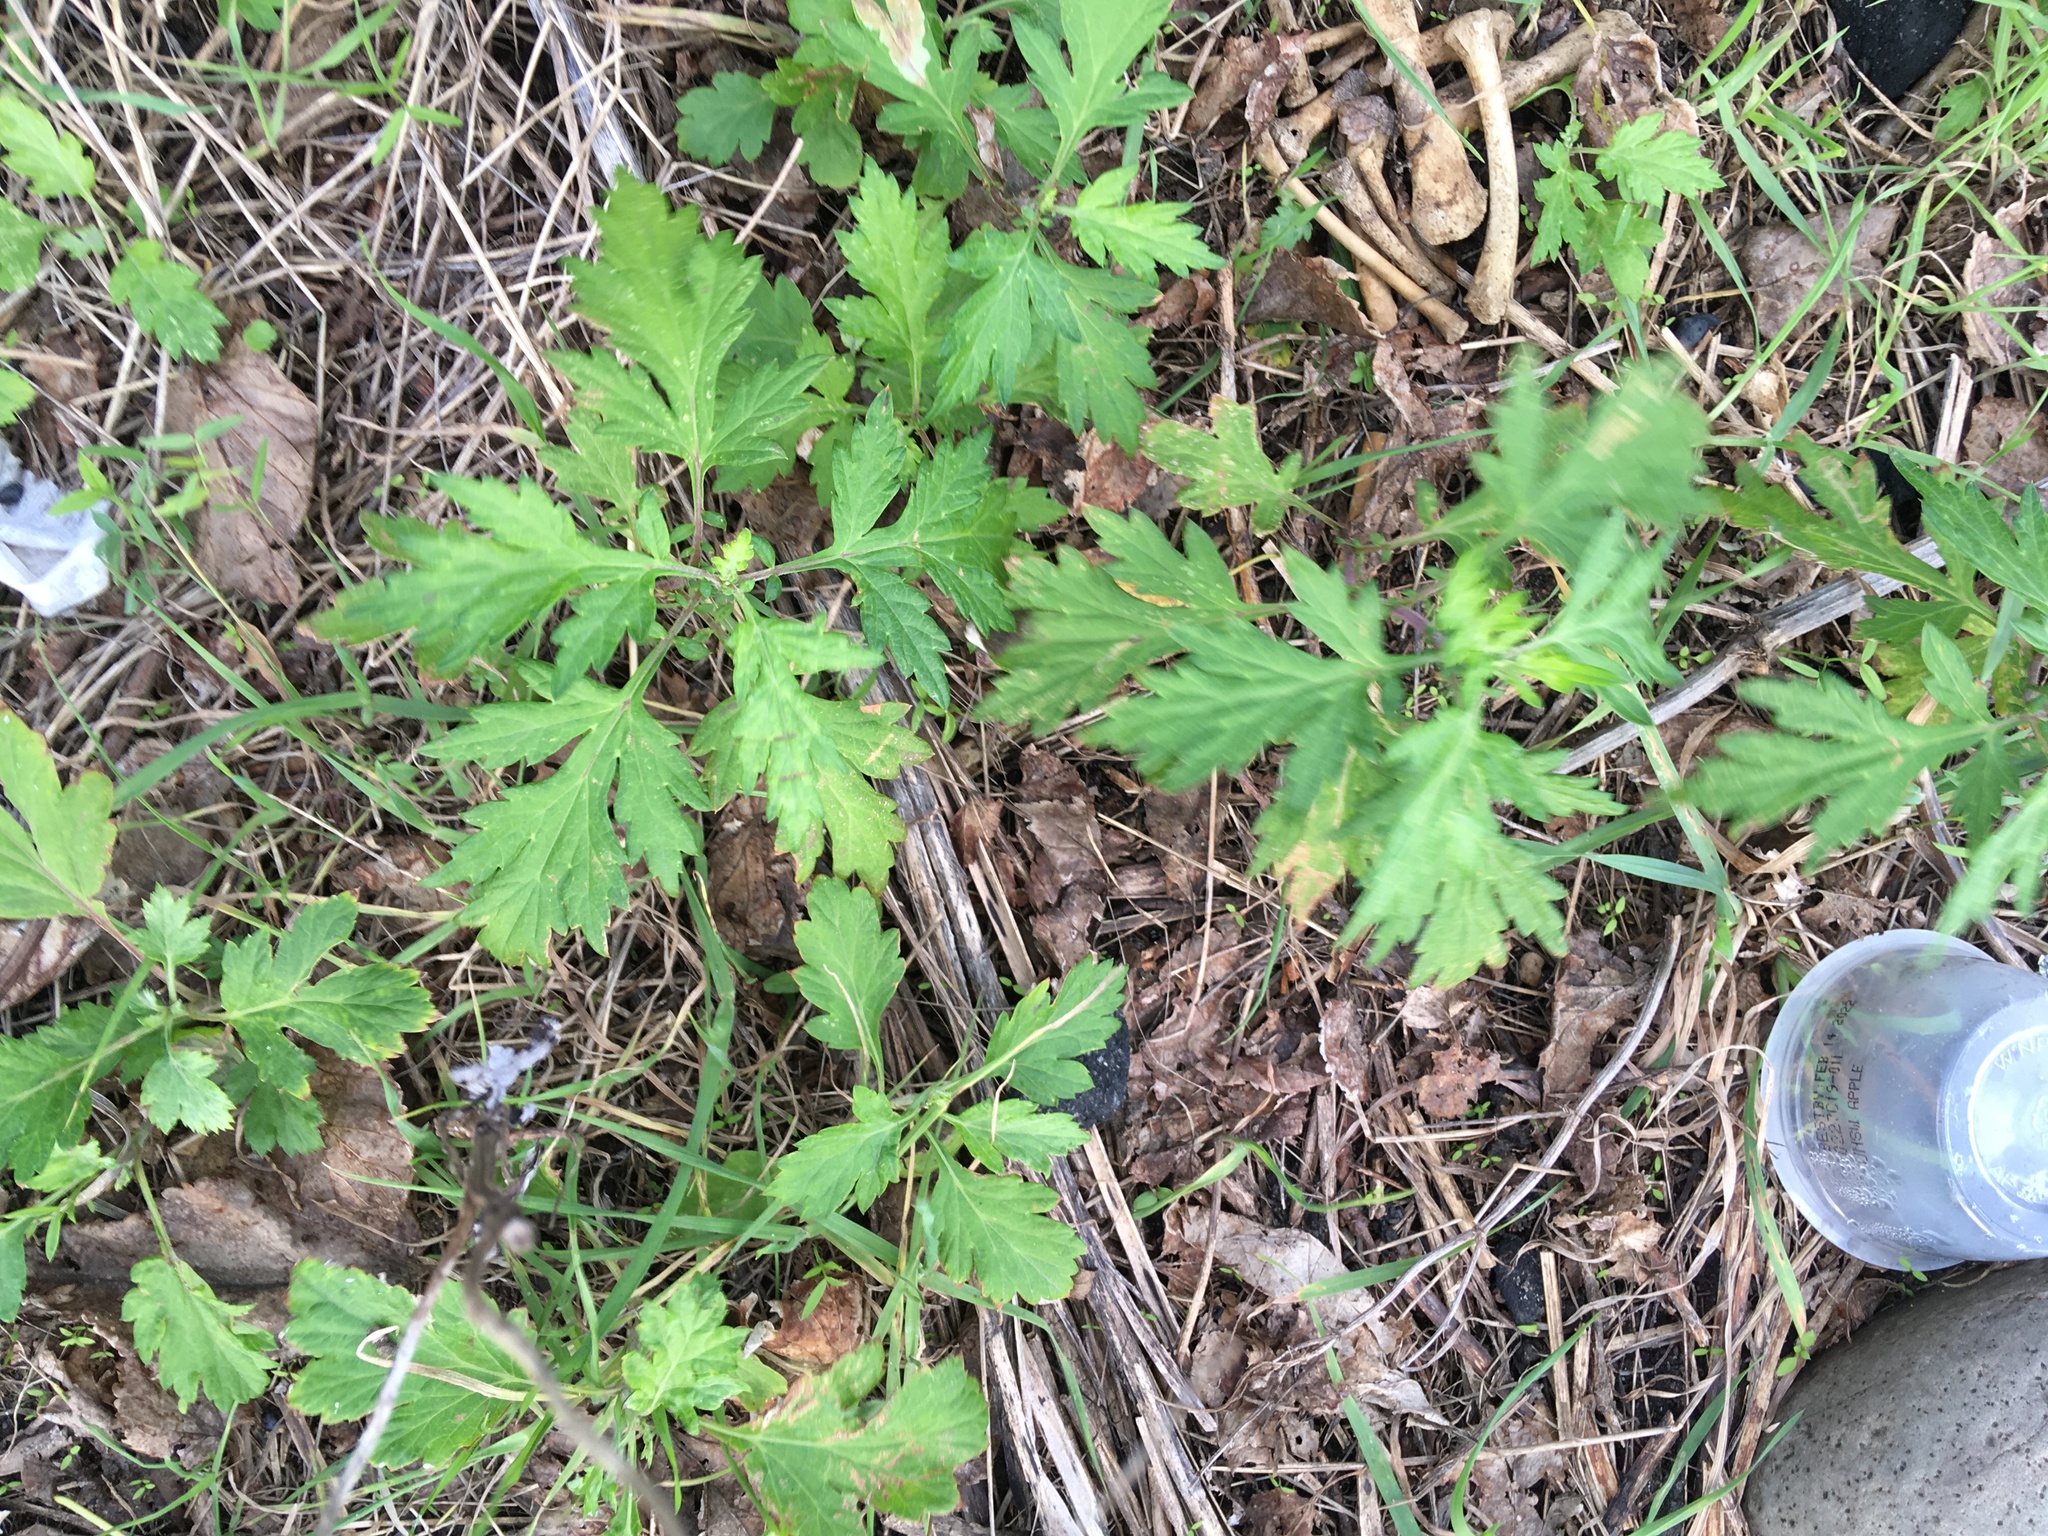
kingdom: Plantae
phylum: Tracheophyta
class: Magnoliopsida
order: Asterales
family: Asteraceae
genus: Artemisia
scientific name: Artemisia vulgaris
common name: Mugwort
